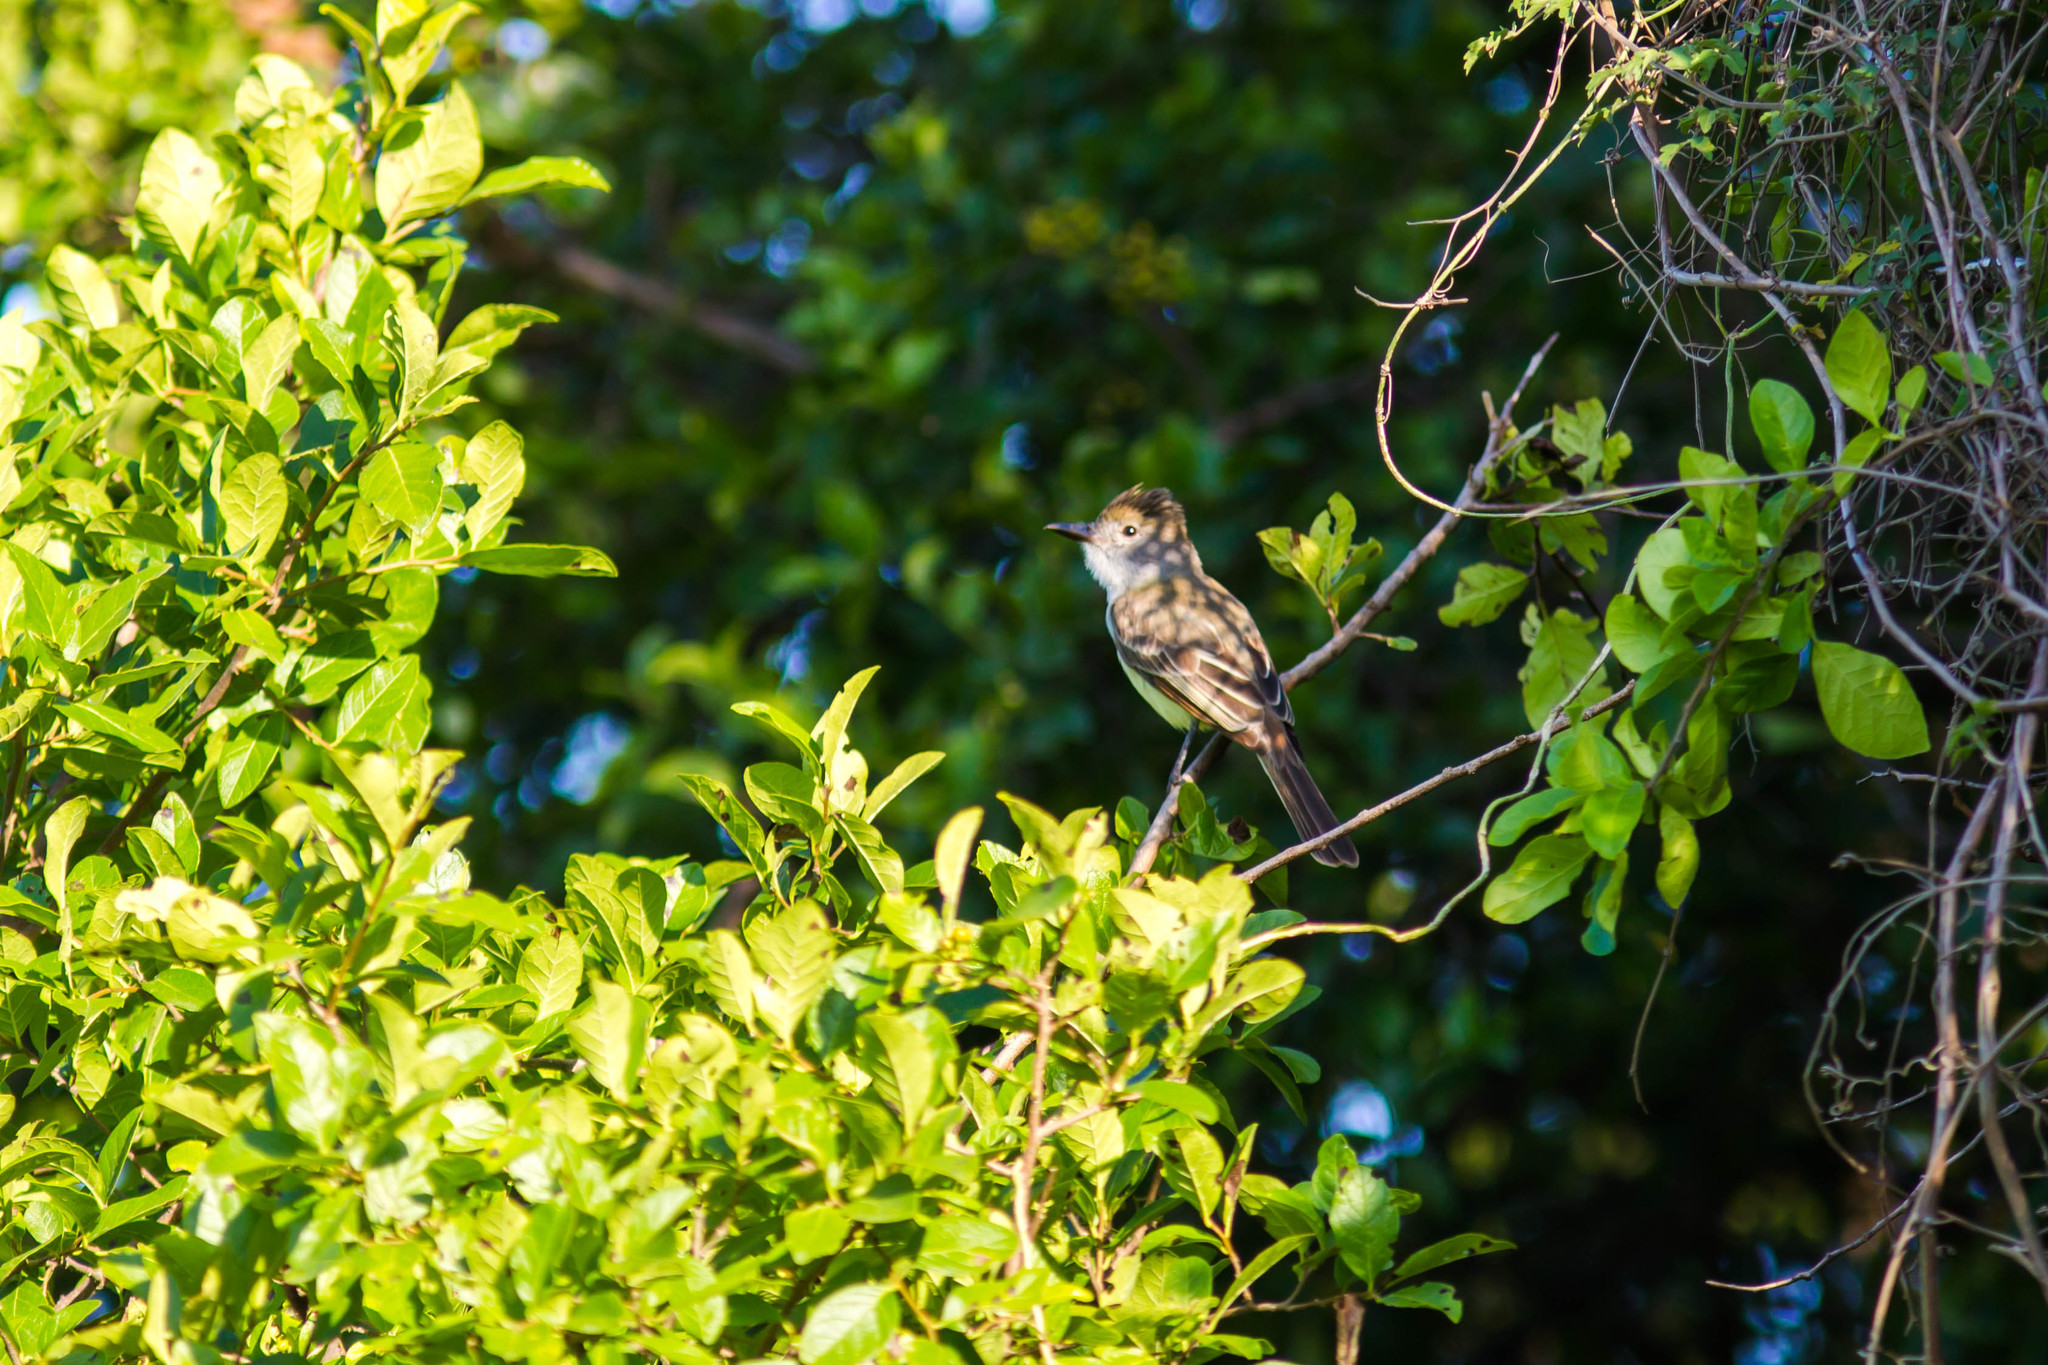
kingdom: Animalia
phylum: Chordata
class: Aves
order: Passeriformes
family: Tyrannidae
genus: Myiarchus
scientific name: Myiarchus tyrannulus
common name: Brown-crested flycatcher
